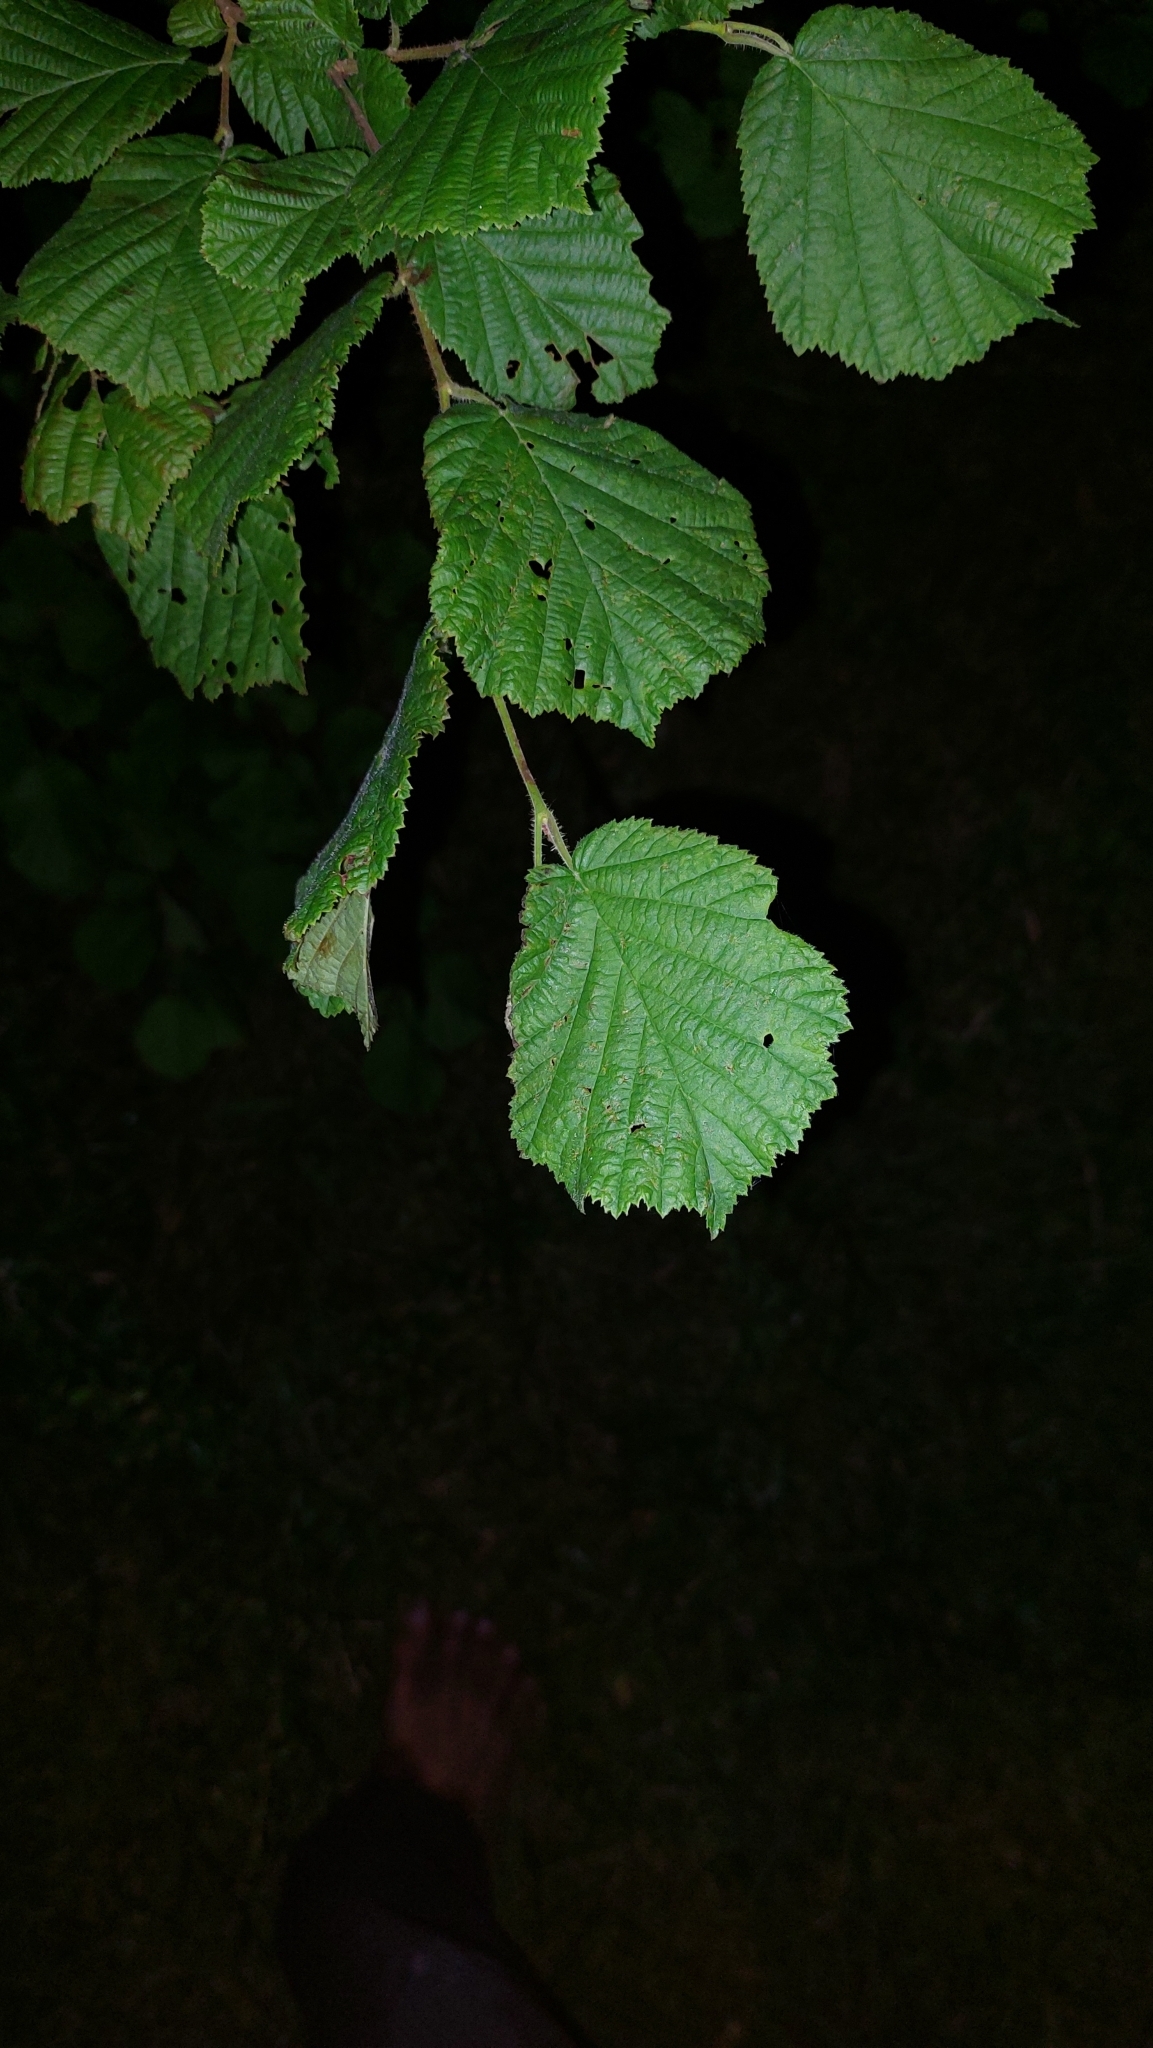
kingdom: Plantae
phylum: Tracheophyta
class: Magnoliopsida
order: Fagales
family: Betulaceae
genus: Corylus
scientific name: Corylus avellana
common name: European hazel
